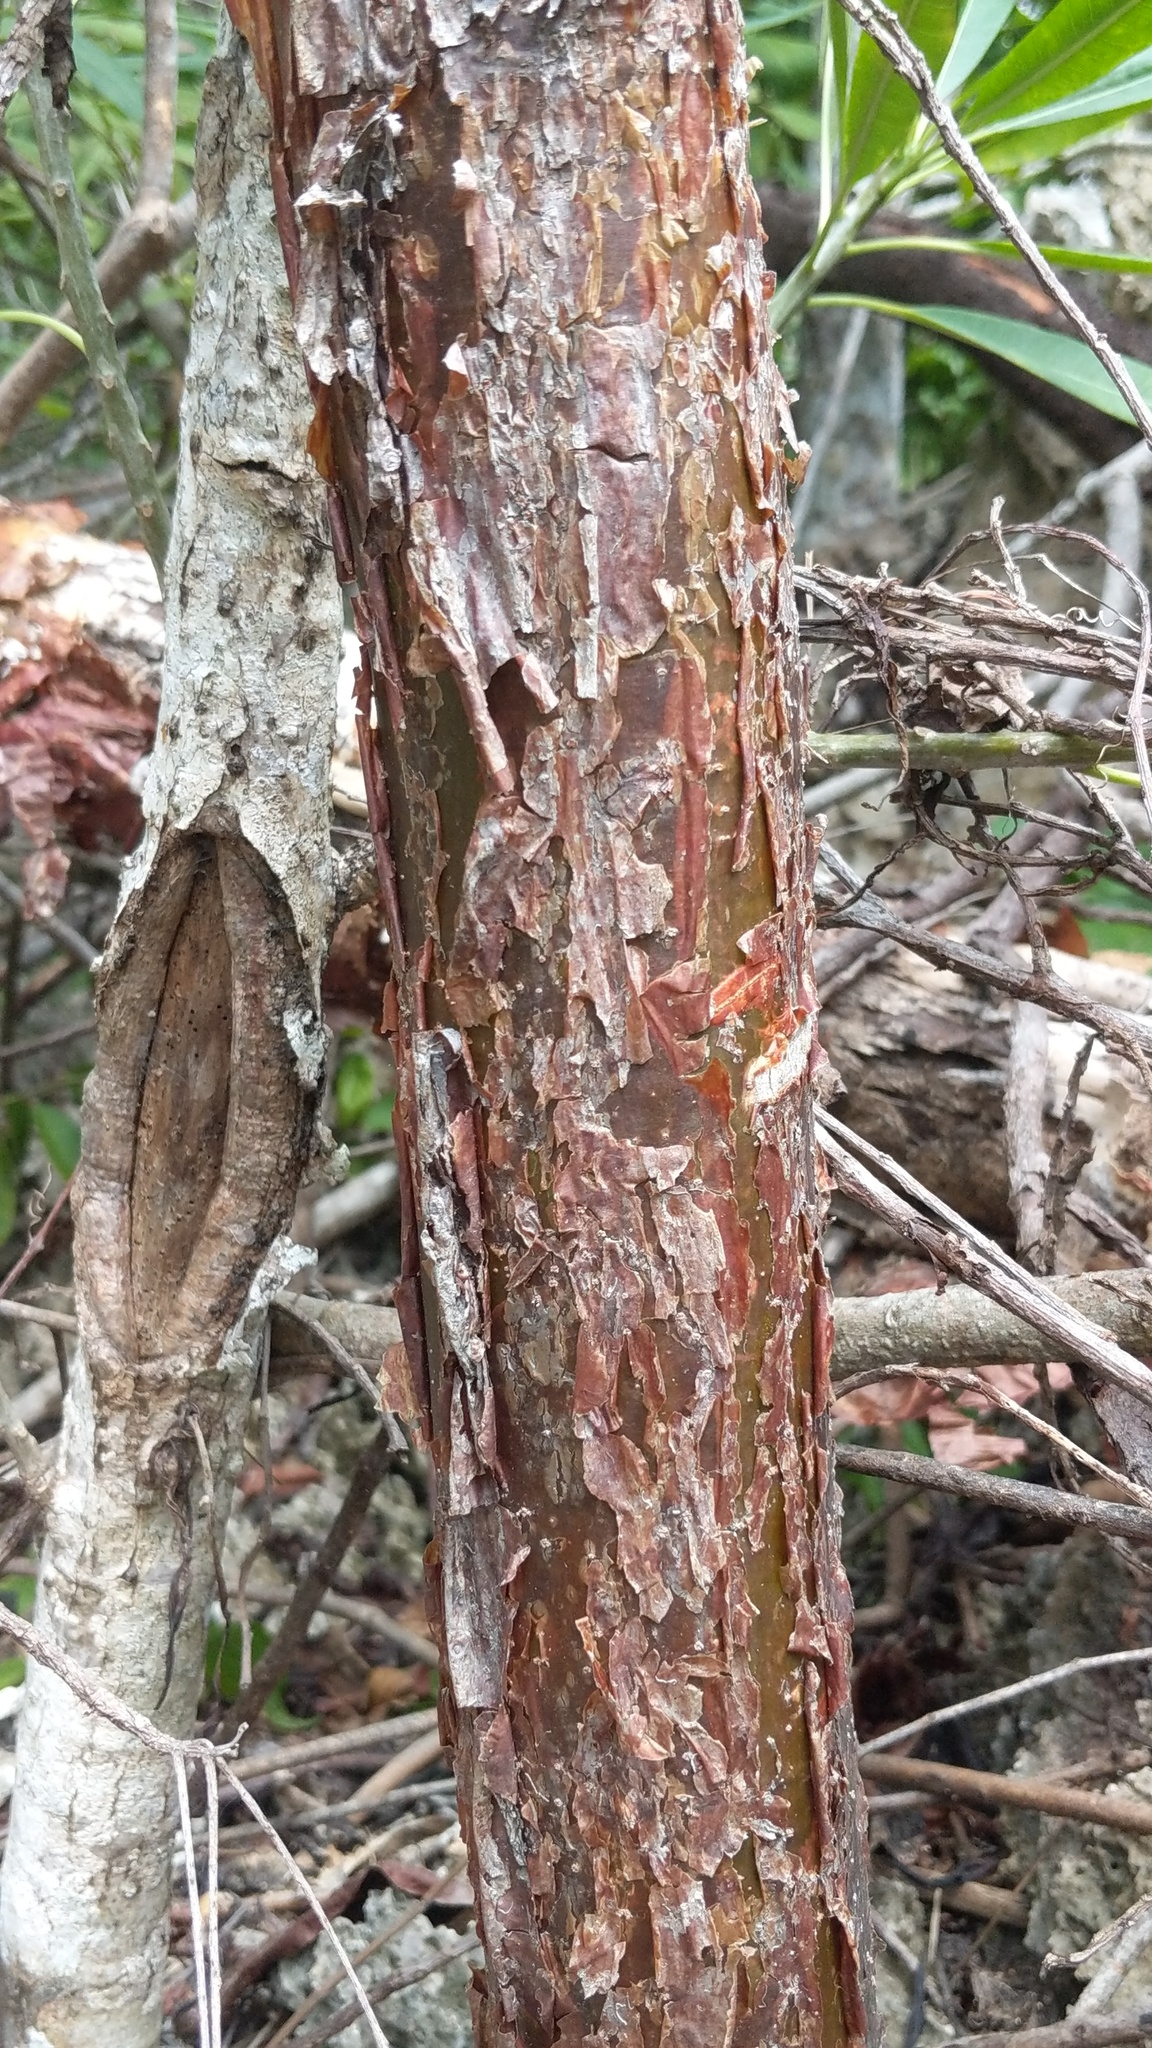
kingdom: Plantae
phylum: Tracheophyta
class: Magnoliopsida
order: Sapindales
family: Burseraceae
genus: Bursera
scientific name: Bursera simaruba
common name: Turpentine tree
